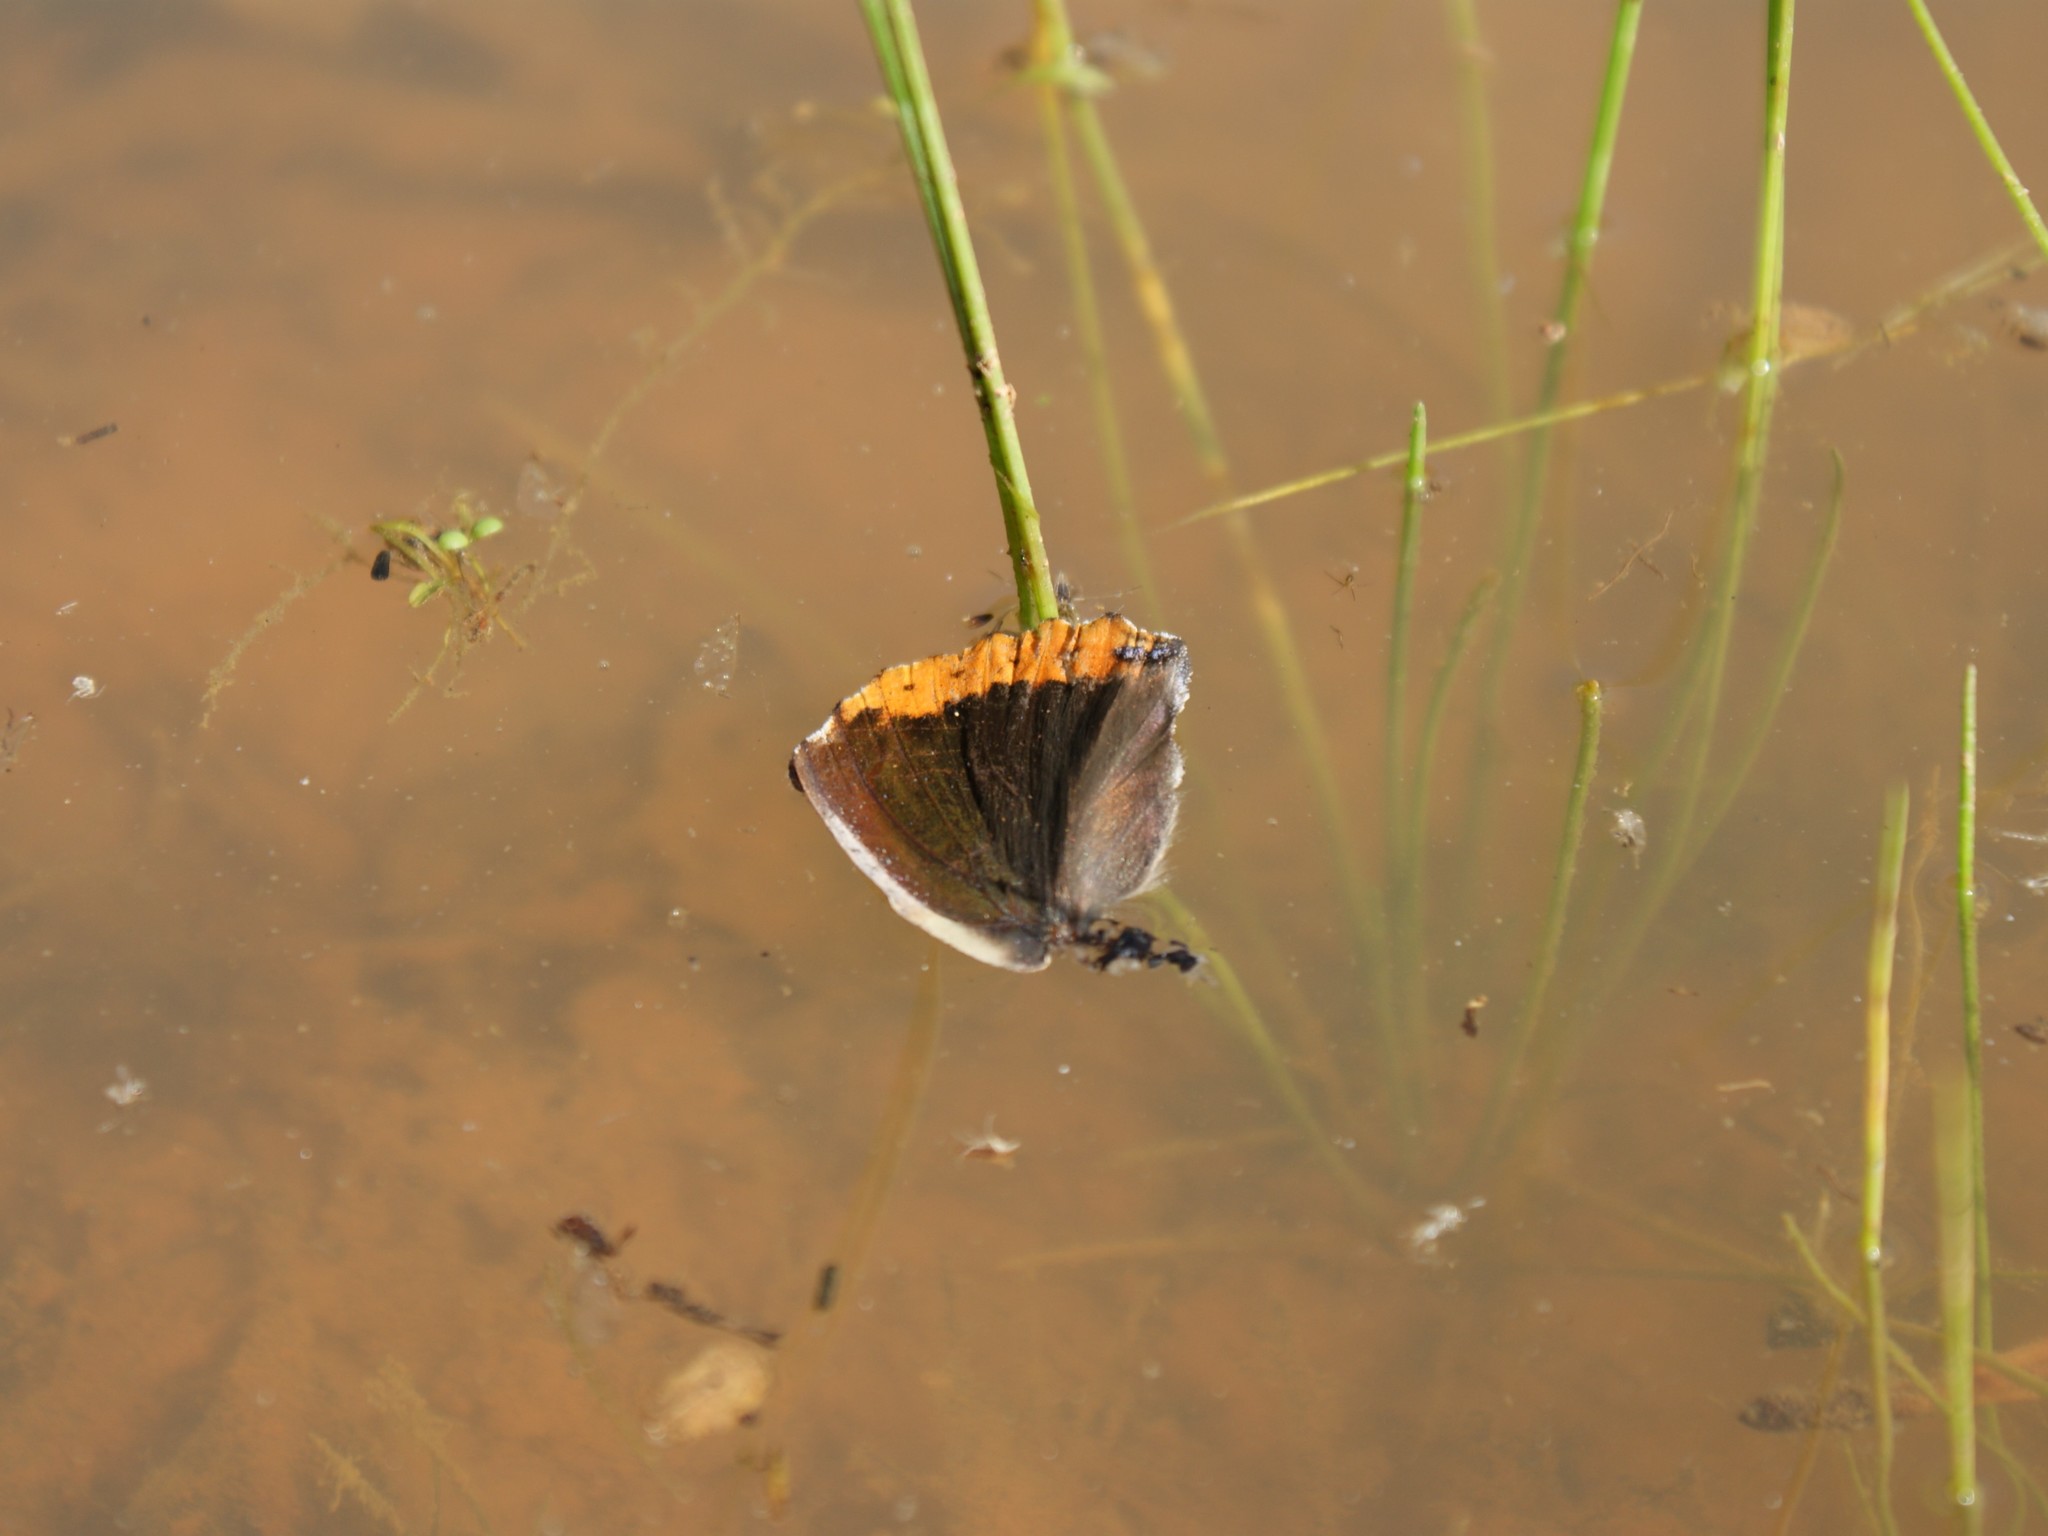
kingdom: Animalia
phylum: Arthropoda
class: Insecta
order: Lepidoptera
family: Nymphalidae
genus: Vanessa
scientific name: Vanessa atalanta
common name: Red admiral
